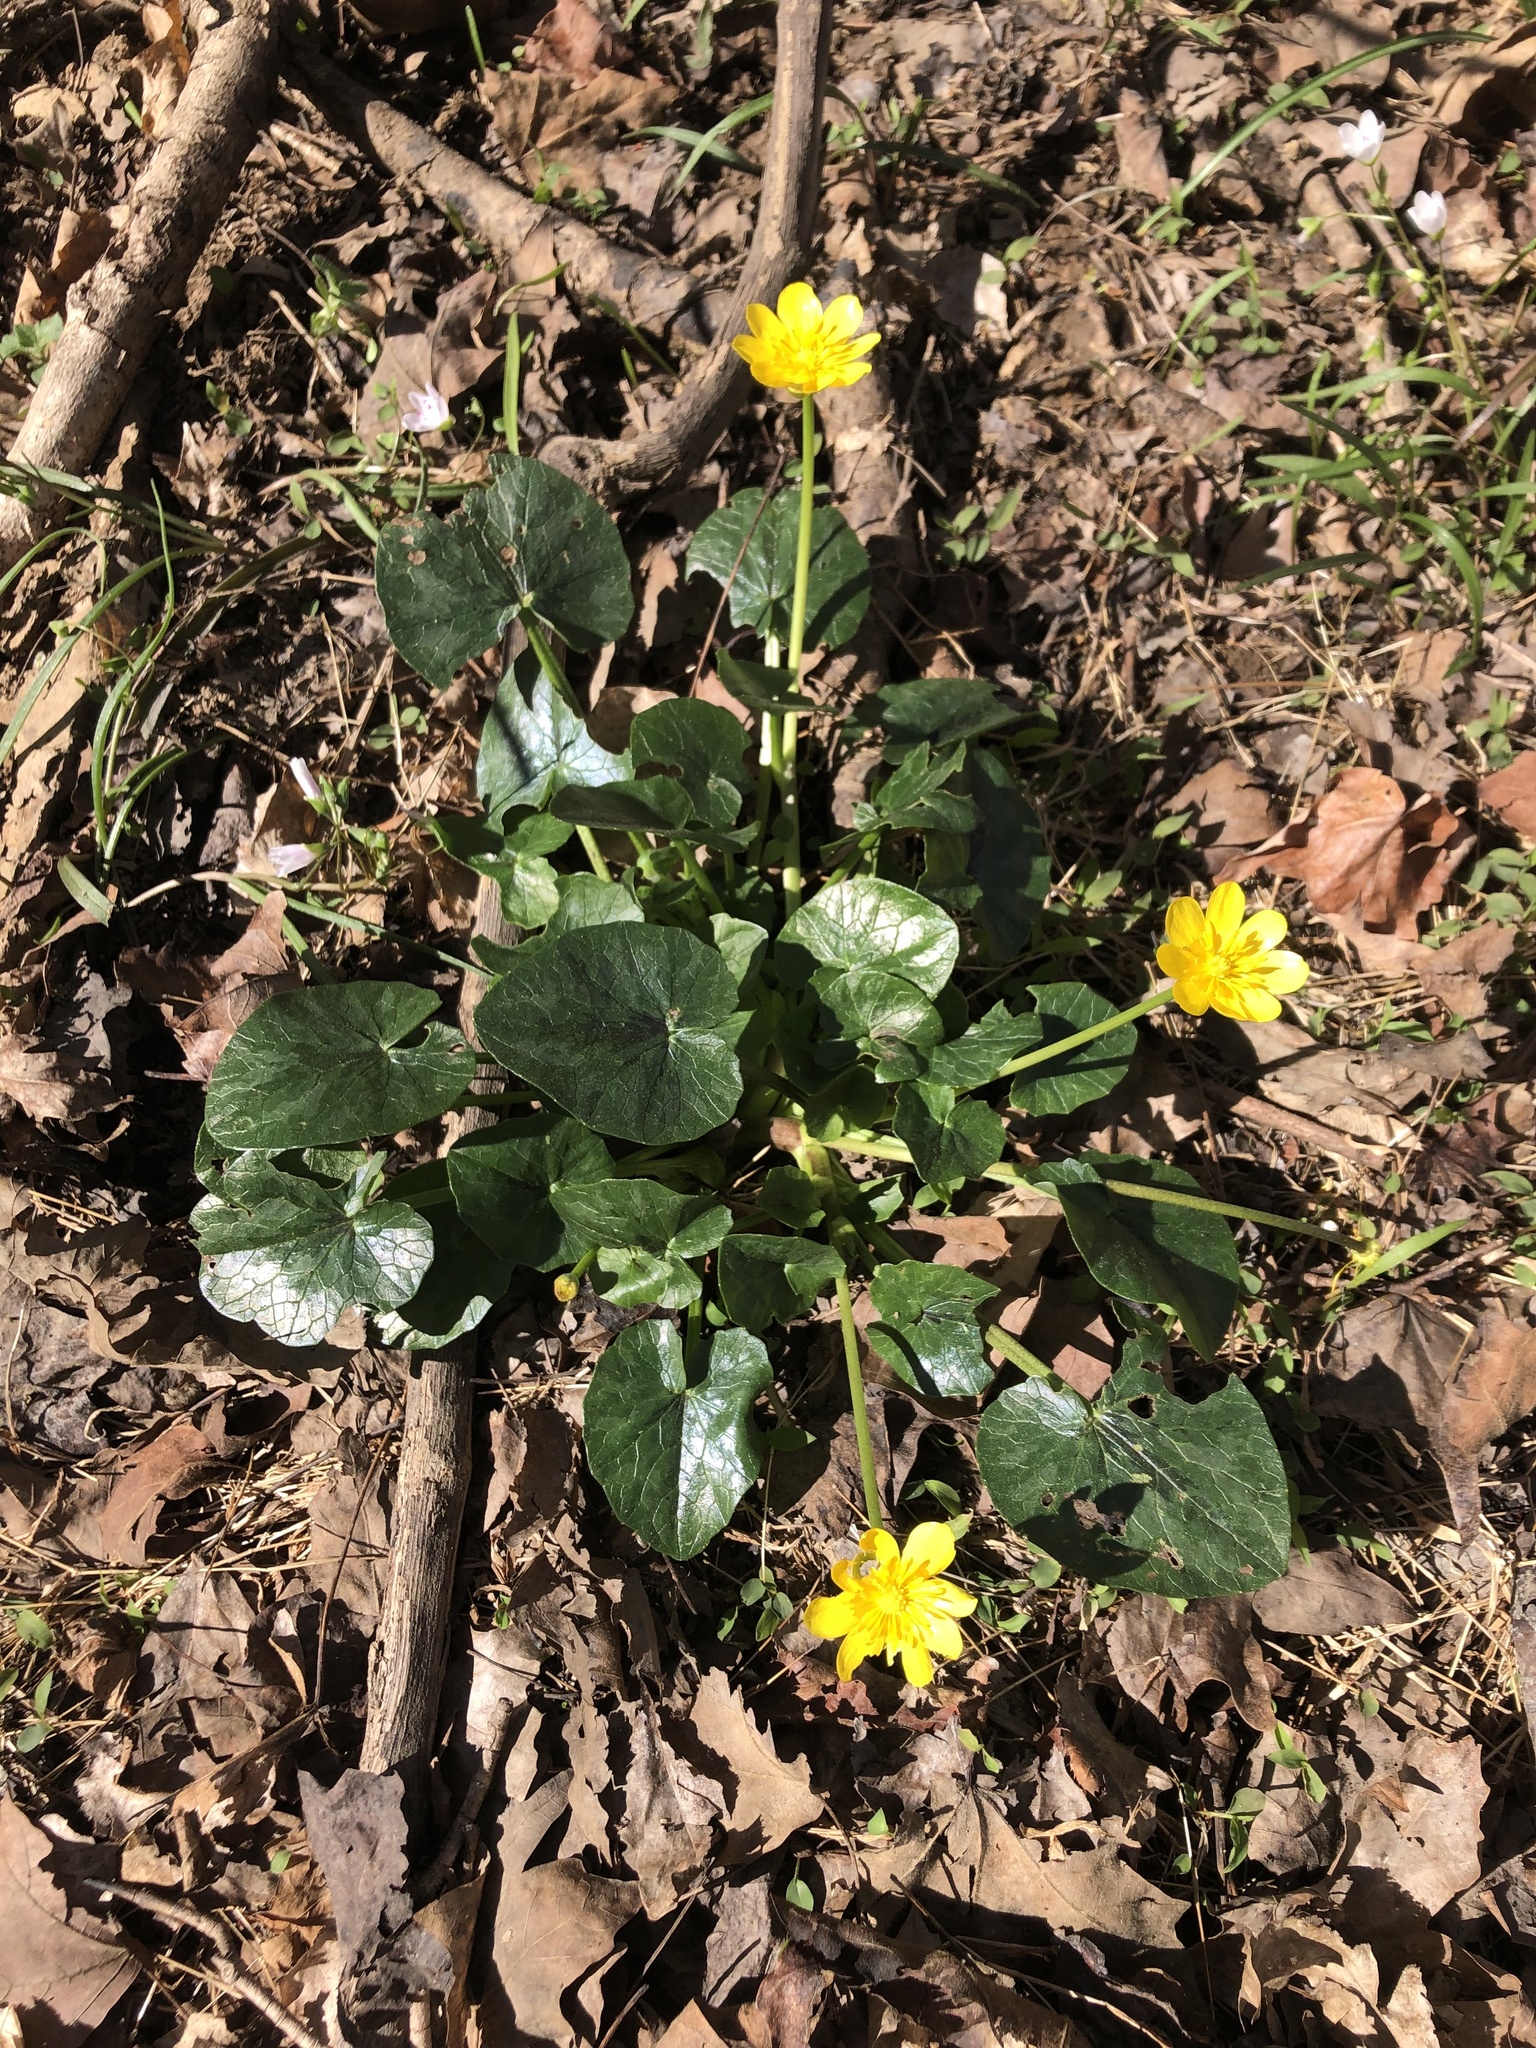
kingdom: Plantae
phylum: Tracheophyta
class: Magnoliopsida
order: Ranunculales
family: Ranunculaceae
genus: Ficaria
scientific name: Ficaria verna
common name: Lesser celandine
